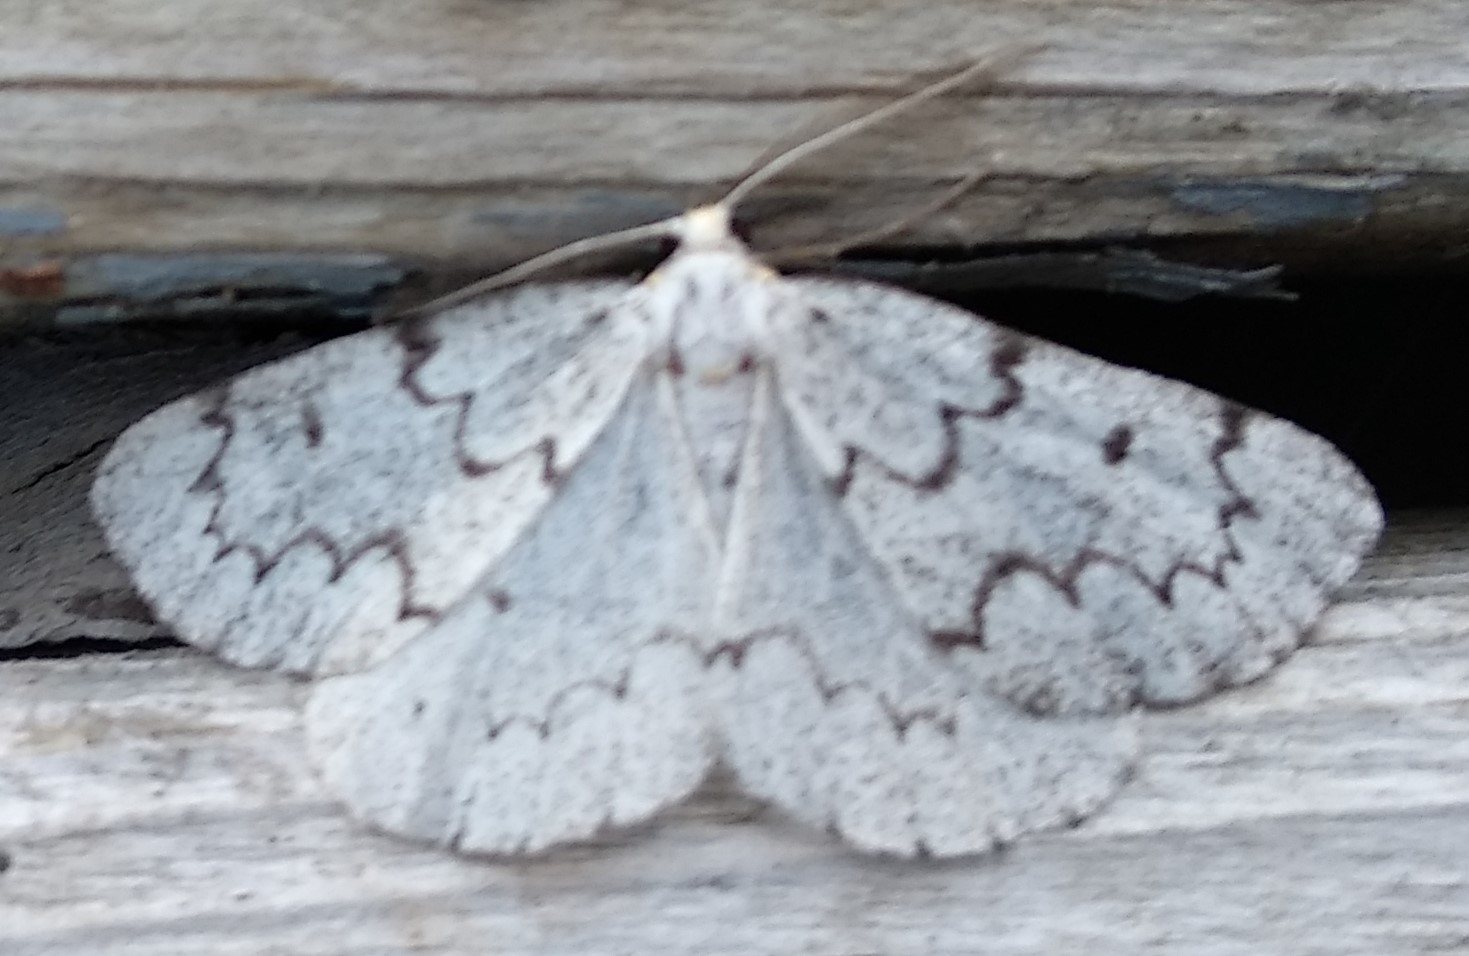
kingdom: Animalia
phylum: Arthropoda
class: Insecta
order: Lepidoptera
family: Geometridae
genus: Nepytia
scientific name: Nepytia canosaria
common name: False hemlock looper
